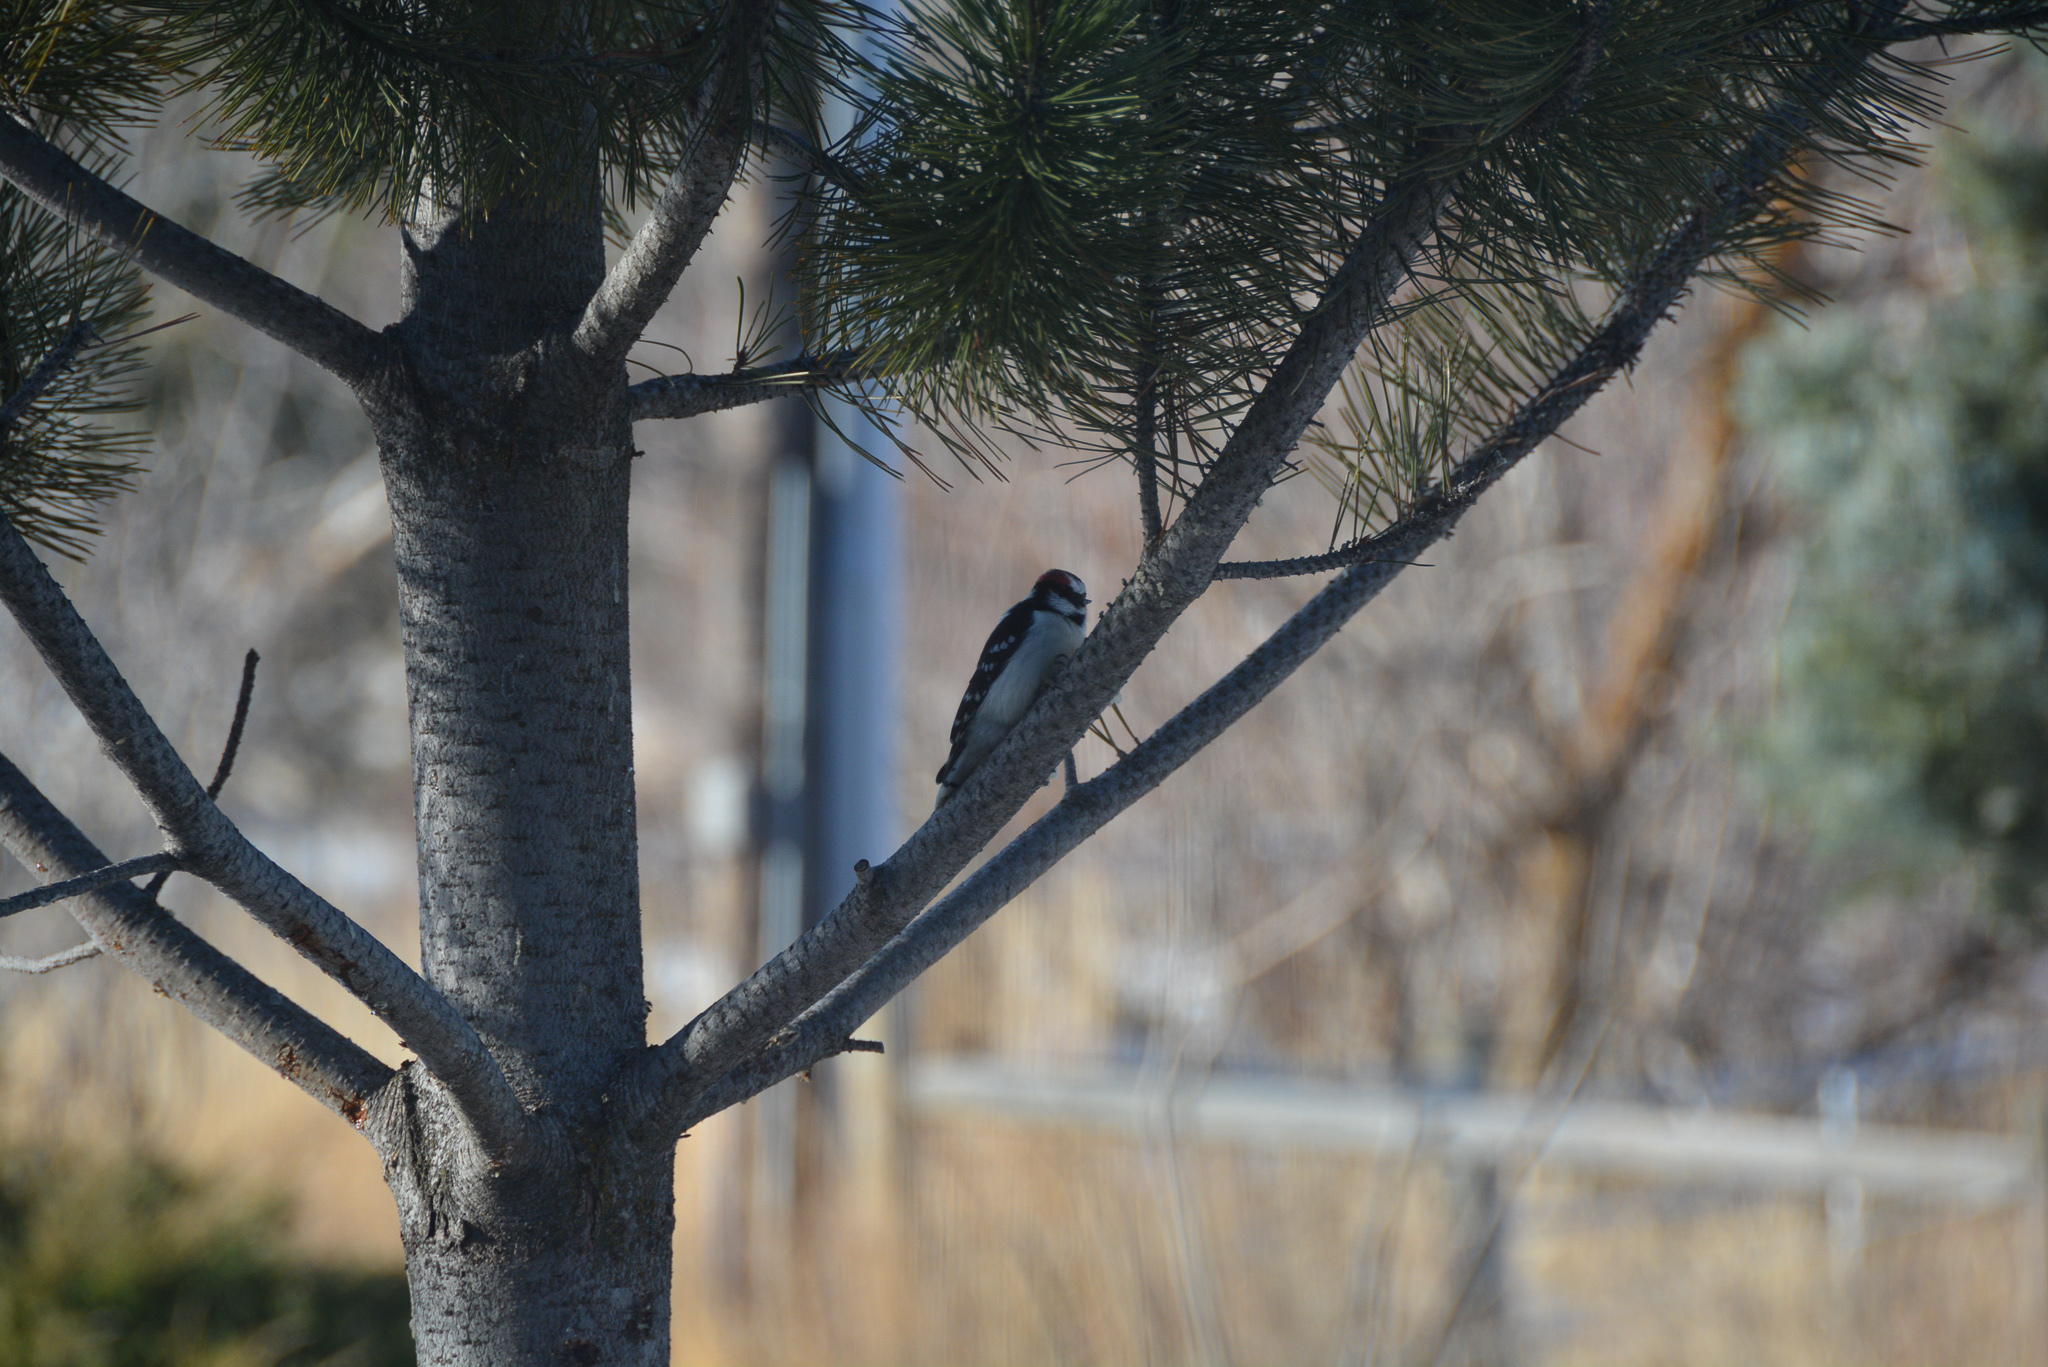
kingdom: Animalia
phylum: Chordata
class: Aves
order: Piciformes
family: Picidae
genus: Dryobates
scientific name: Dryobates pubescens
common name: Downy woodpecker
